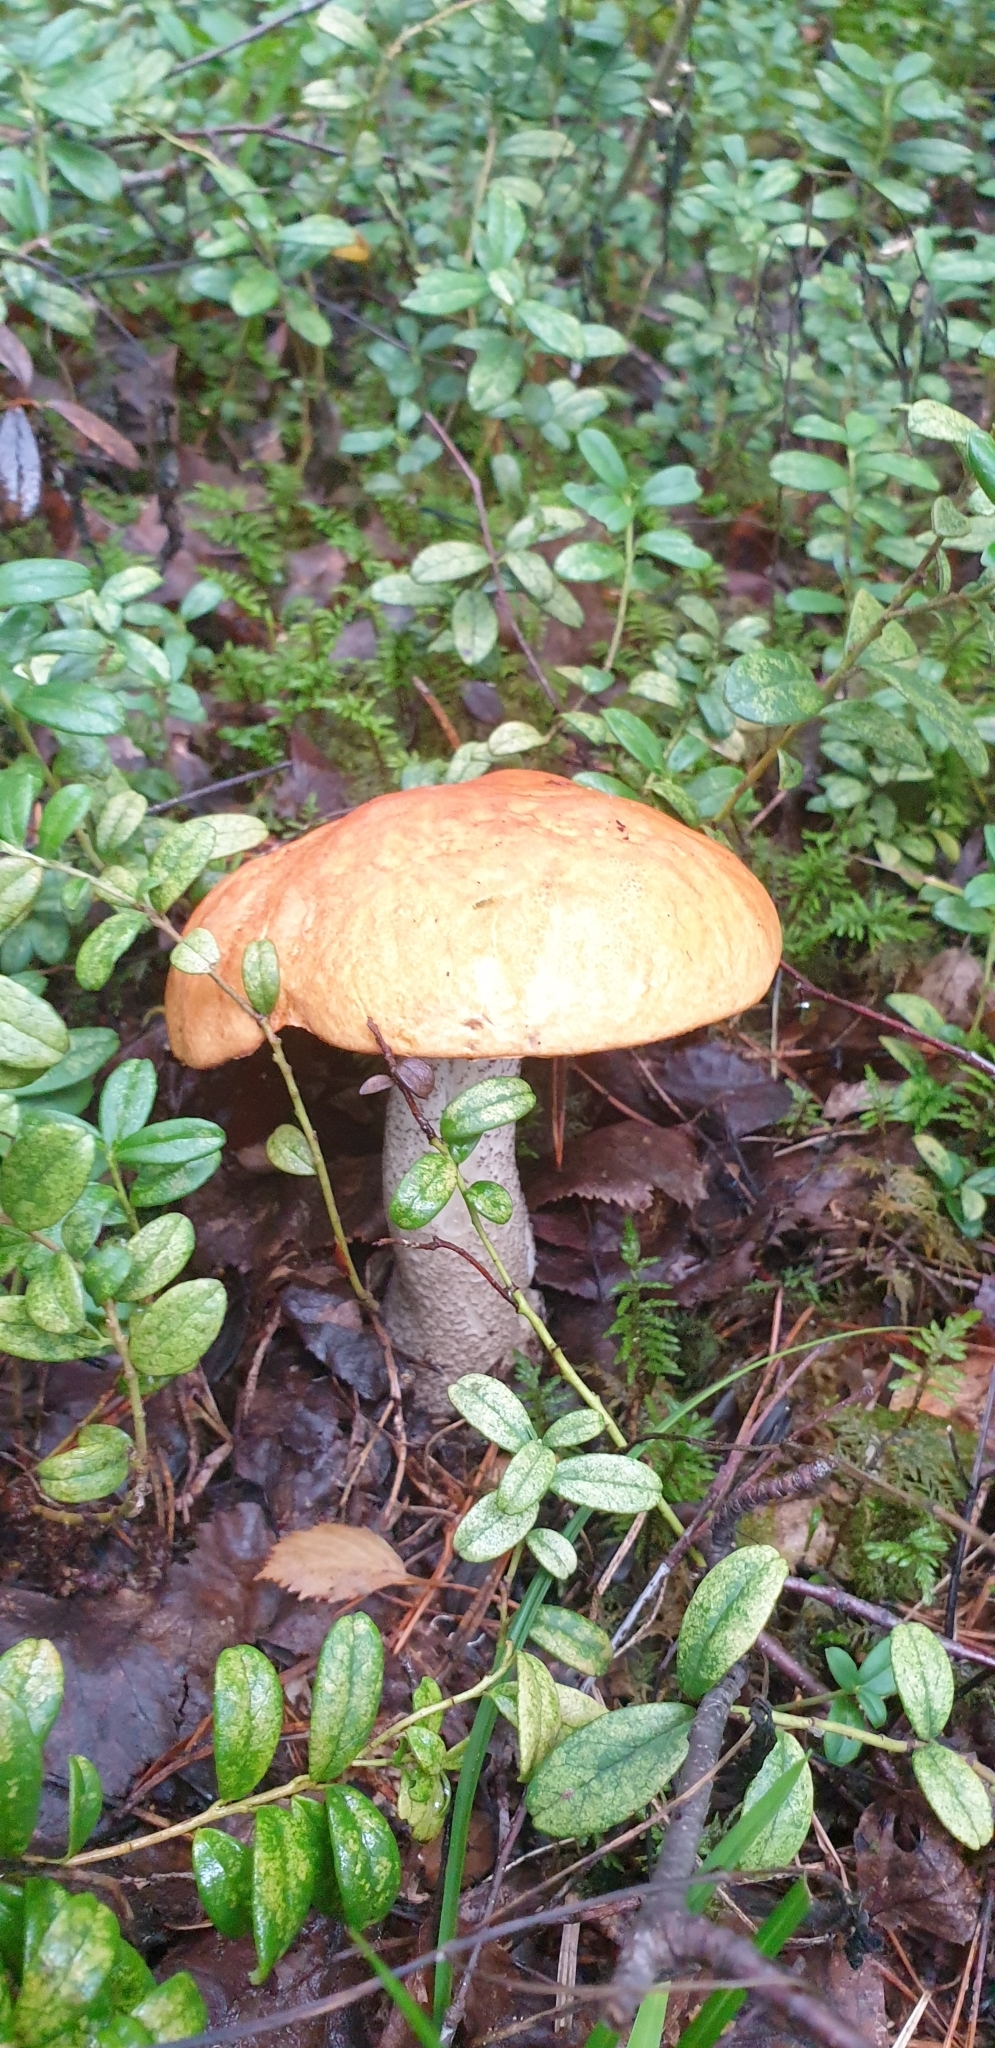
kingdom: Fungi
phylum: Basidiomycota
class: Agaricomycetes
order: Boletales
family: Boletaceae
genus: Leccinum
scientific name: Leccinum versipelle
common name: Orange birch bolete
